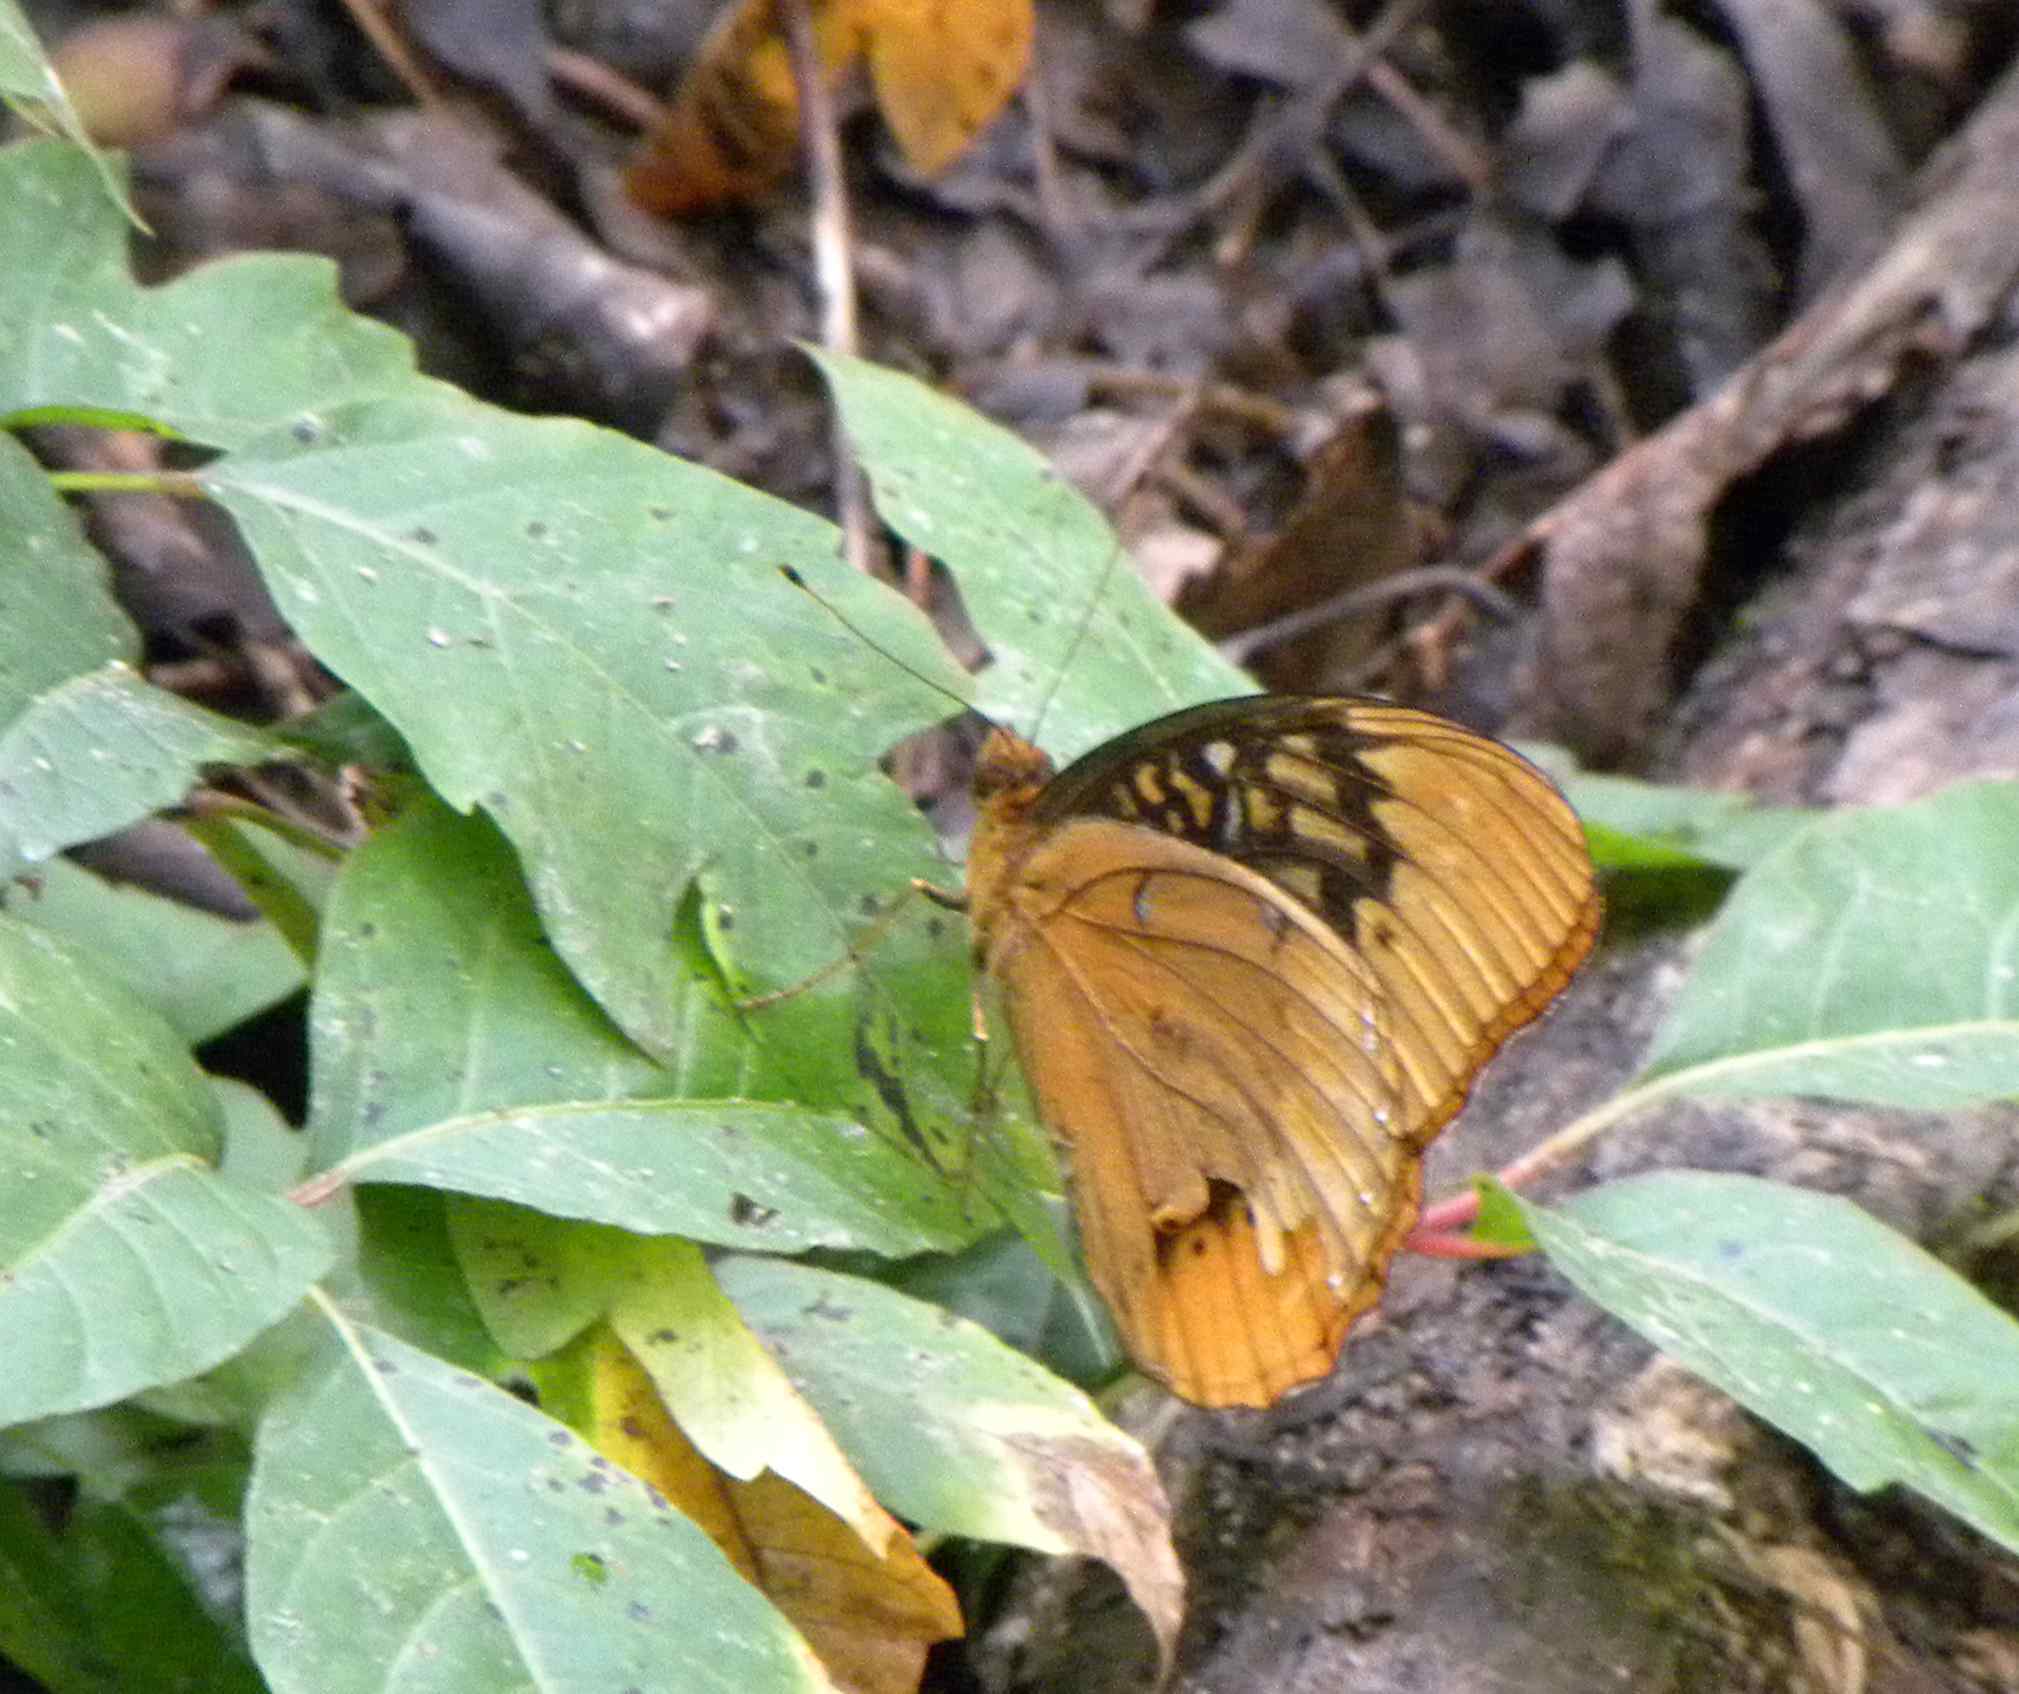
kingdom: Animalia
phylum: Arthropoda
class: Insecta
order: Lepidoptera
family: Nymphalidae
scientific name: Nymphalidae
